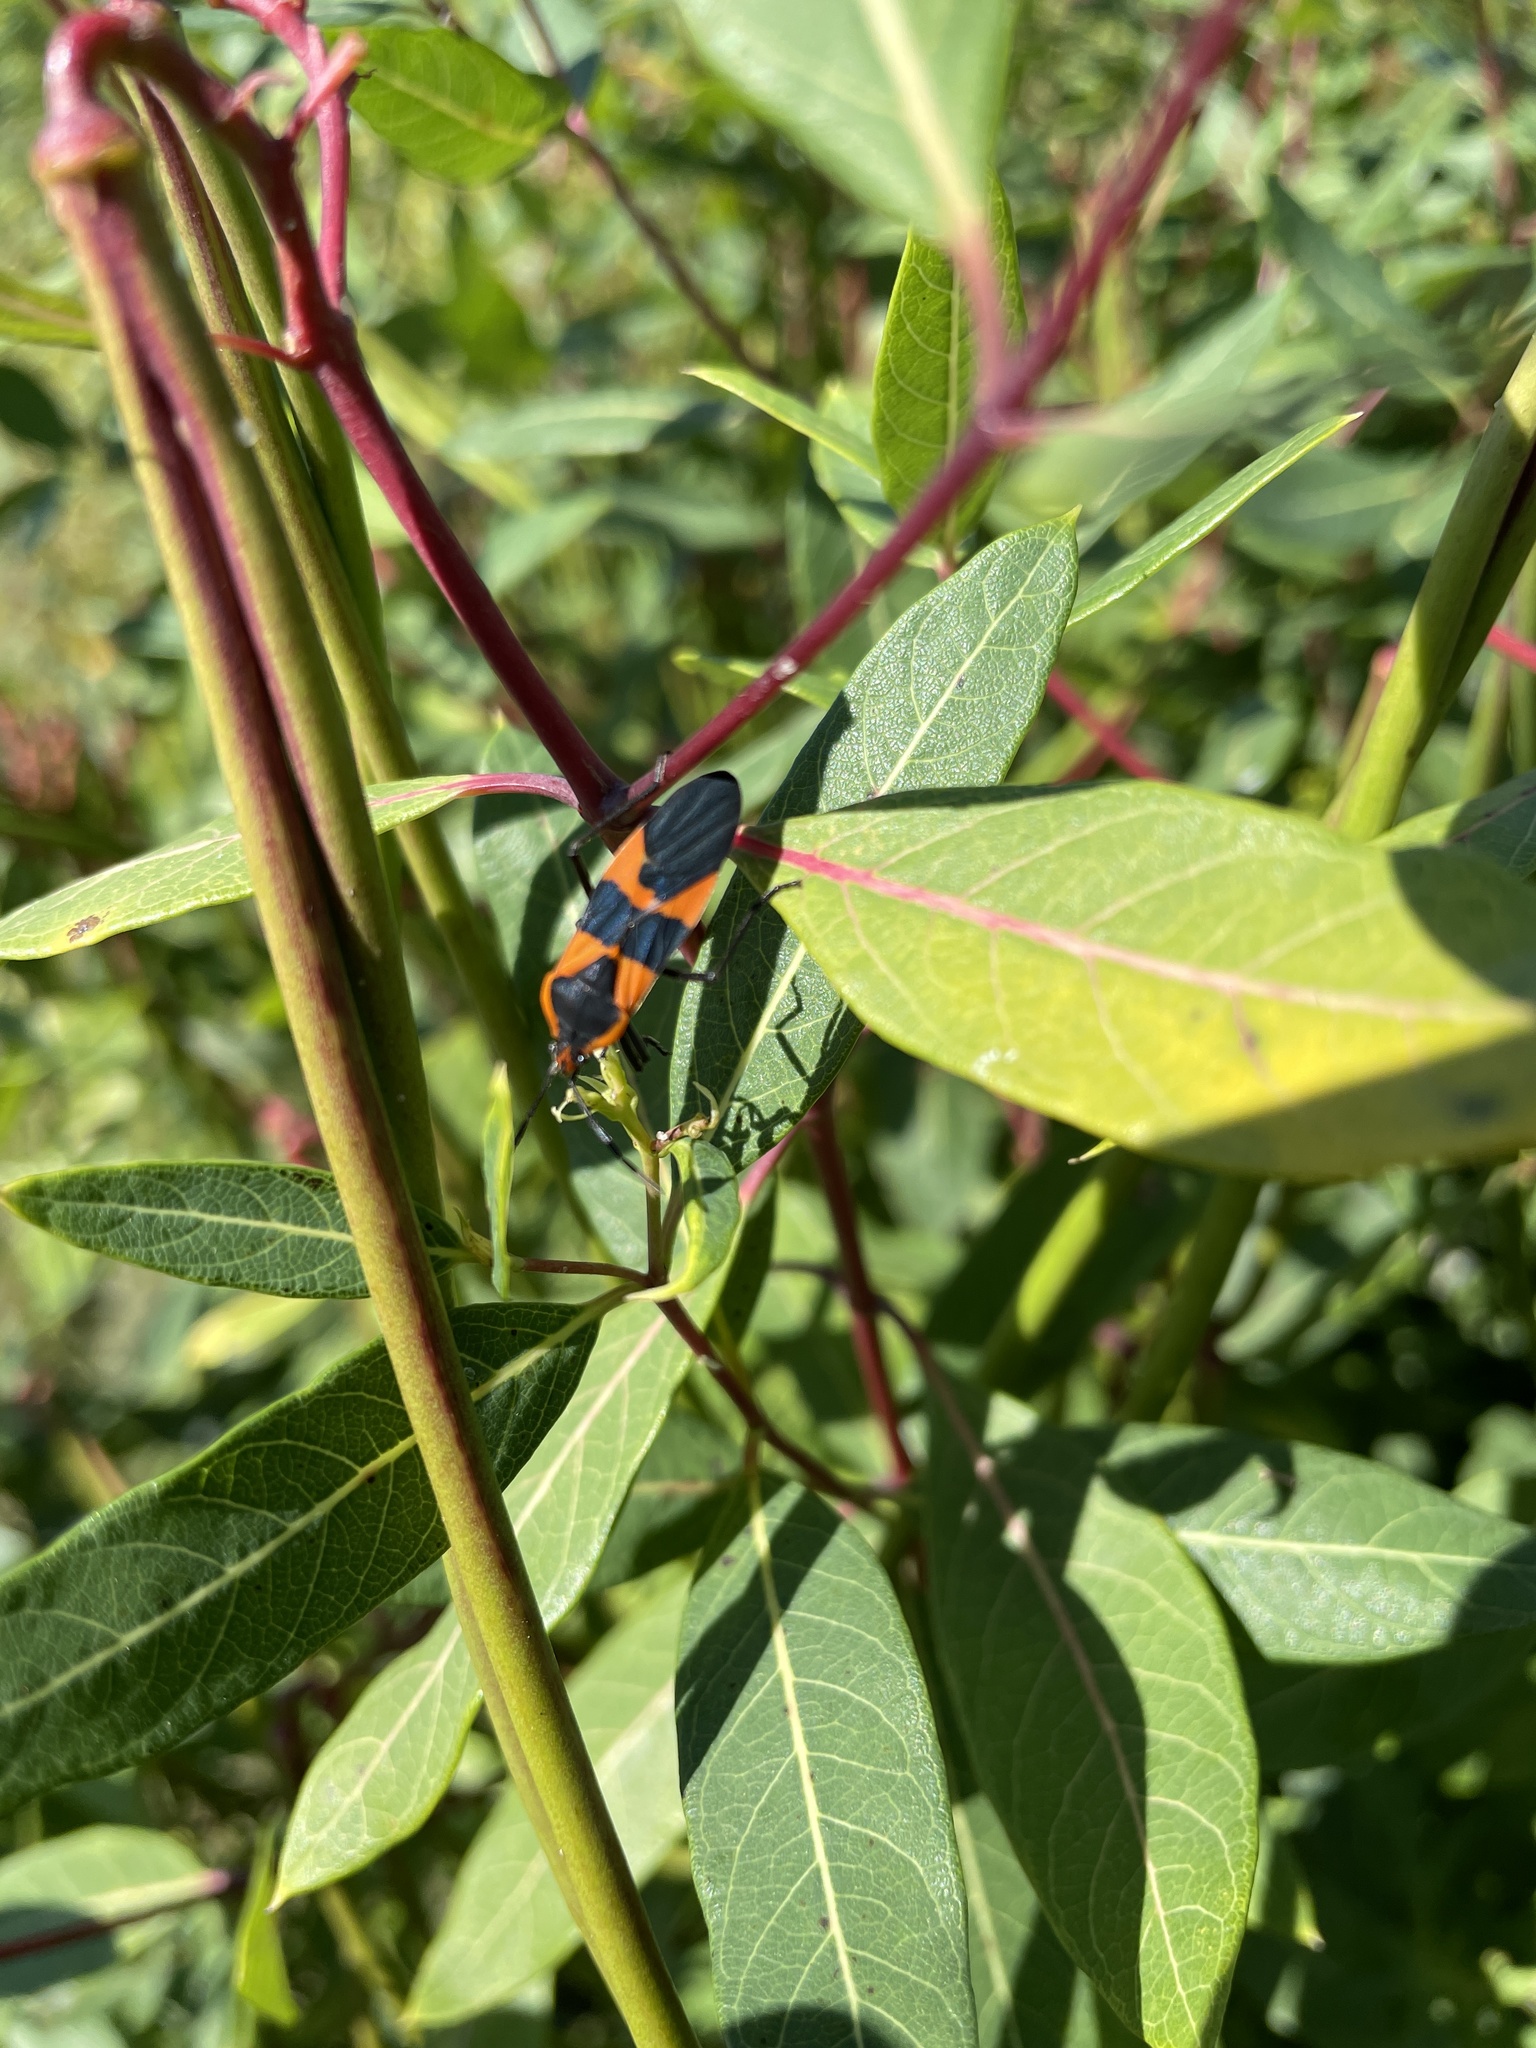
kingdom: Animalia
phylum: Arthropoda
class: Insecta
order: Hemiptera
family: Lygaeidae
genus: Oncopeltus
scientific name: Oncopeltus fasciatus
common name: Large milkweed bug
